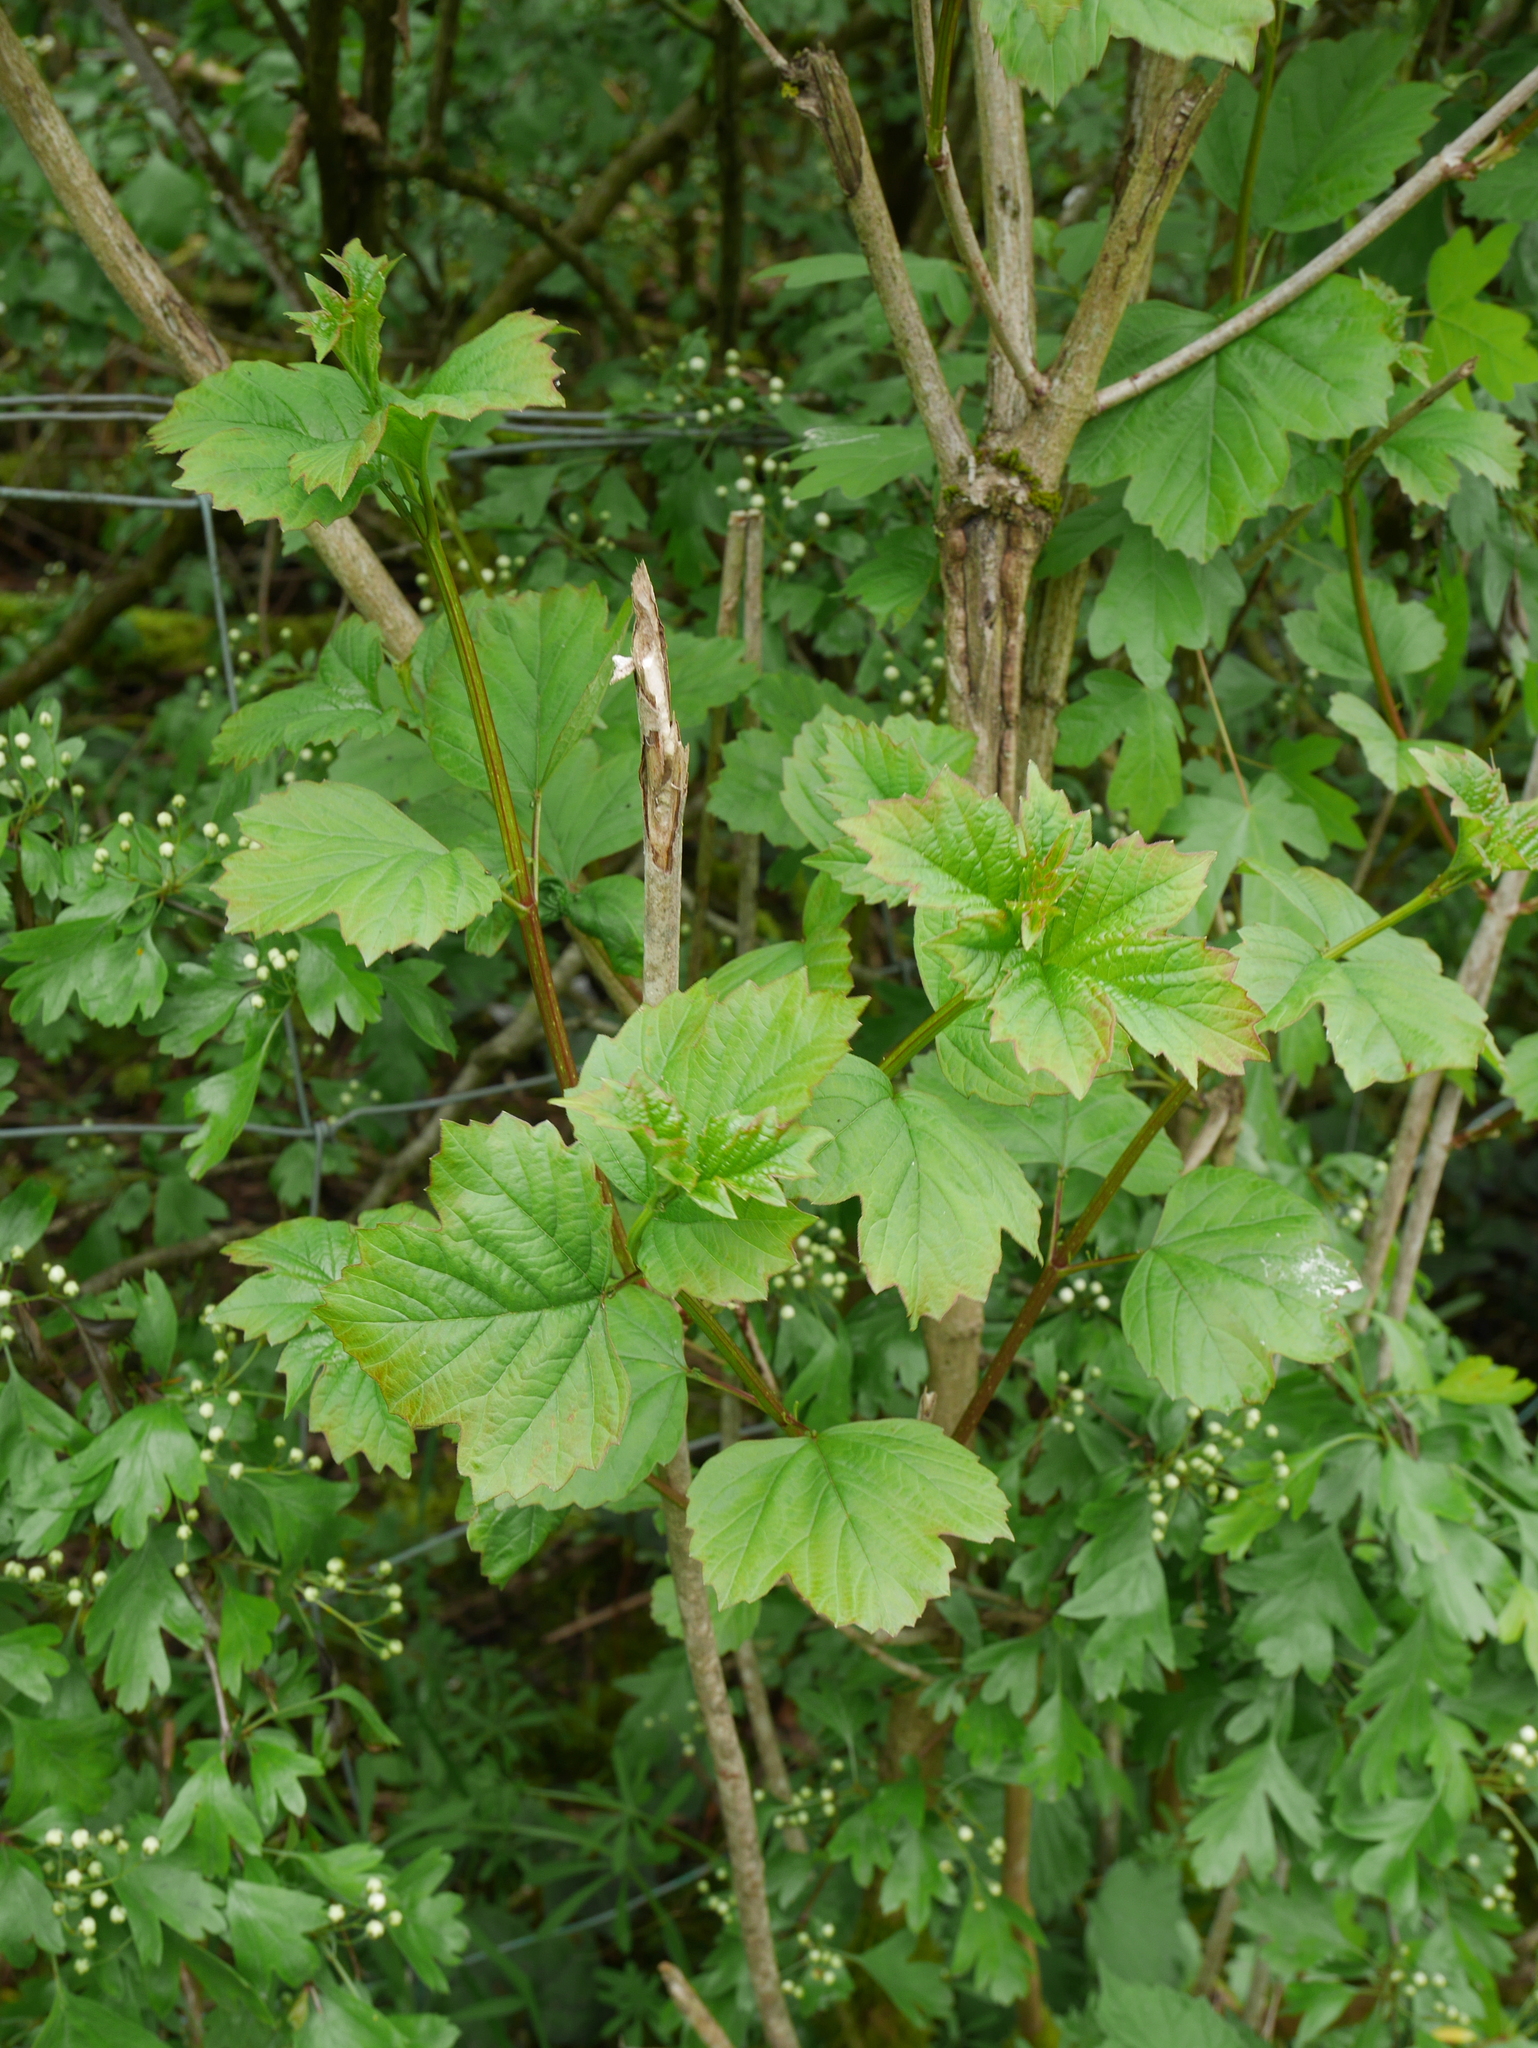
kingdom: Plantae
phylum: Tracheophyta
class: Magnoliopsida
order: Dipsacales
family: Viburnaceae
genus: Viburnum
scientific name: Viburnum opulus
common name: Guelder-rose
